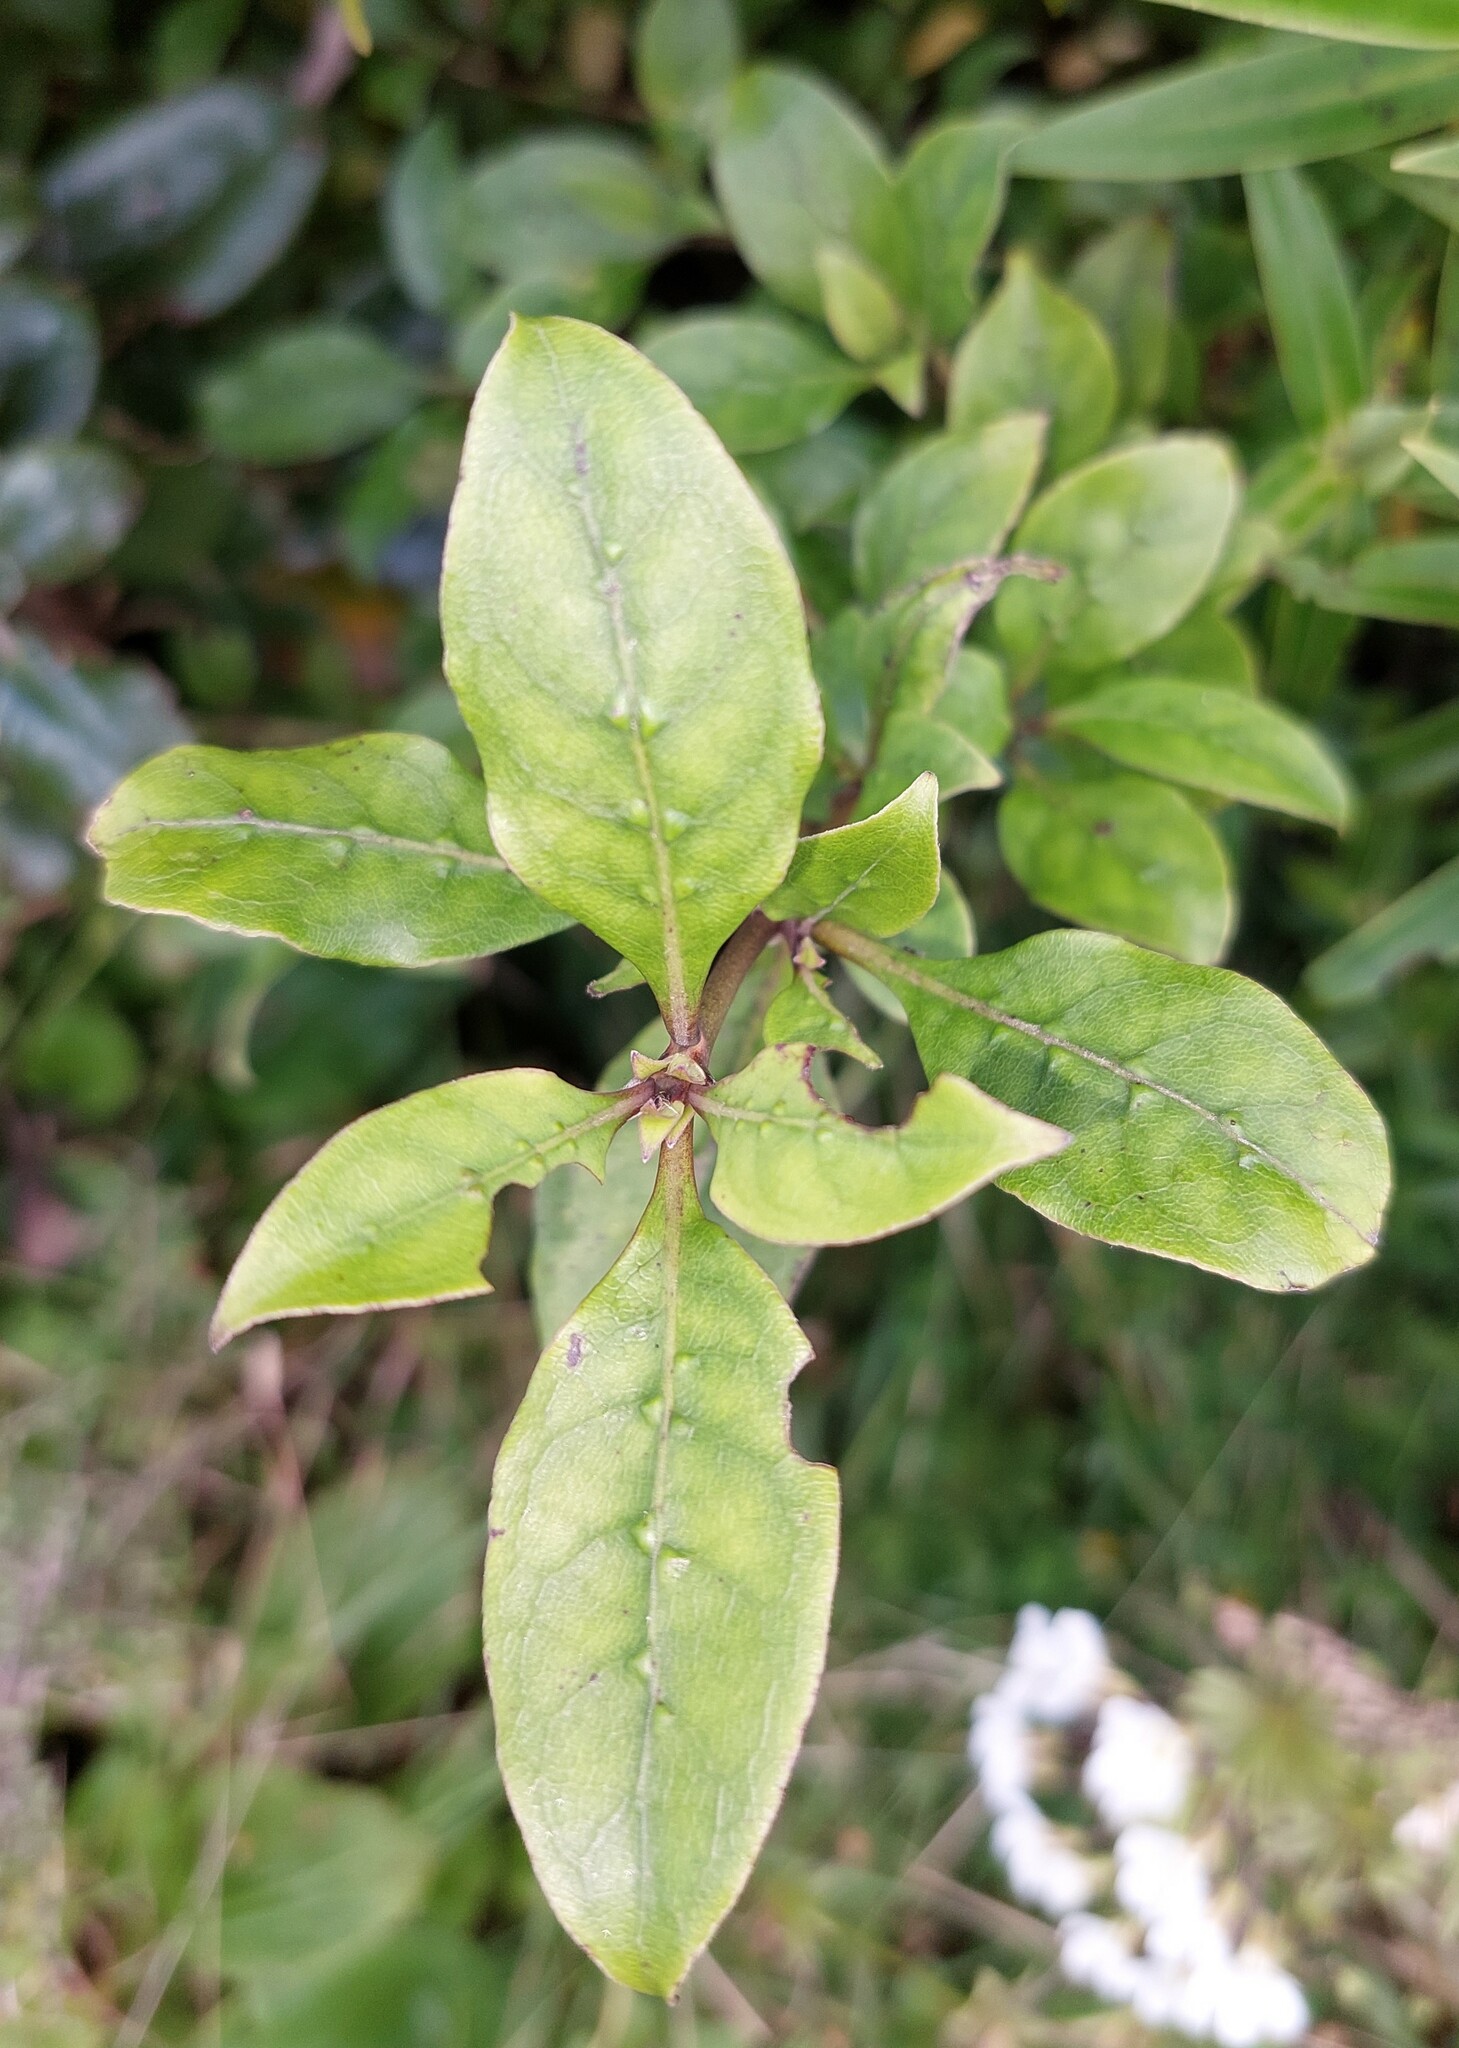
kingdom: Plantae
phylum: Tracheophyta
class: Magnoliopsida
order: Gentianales
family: Rubiaceae
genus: Coprosma
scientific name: Coprosma tenuifolia
